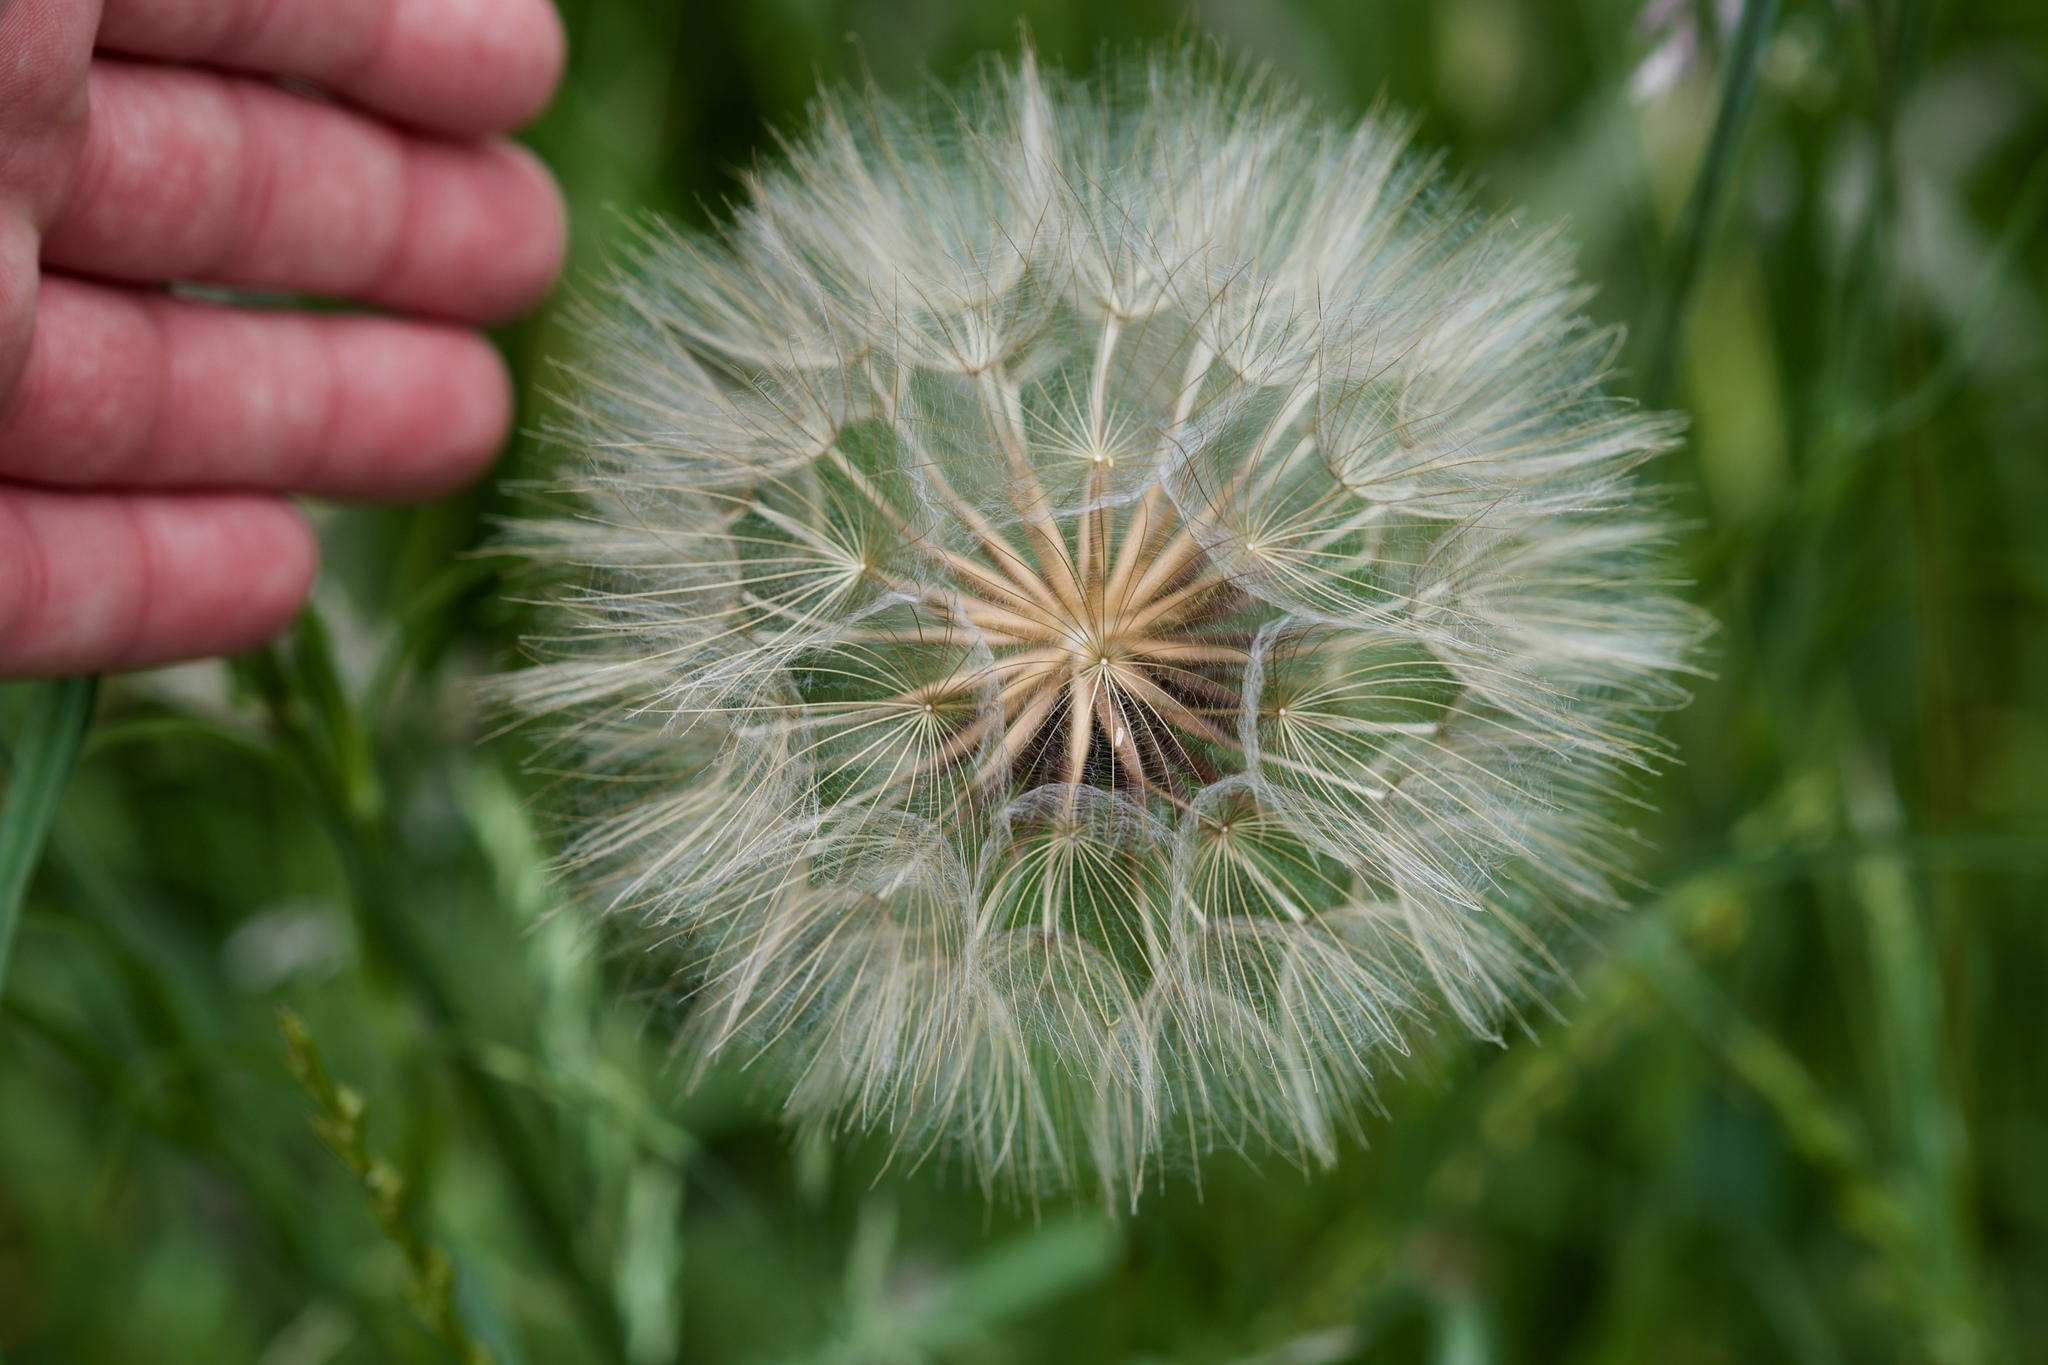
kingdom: Plantae
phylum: Tracheophyta
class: Magnoliopsida
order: Asterales
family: Asteraceae
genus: Tragopogon
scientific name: Tragopogon pratensis
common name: Goat's-beard
